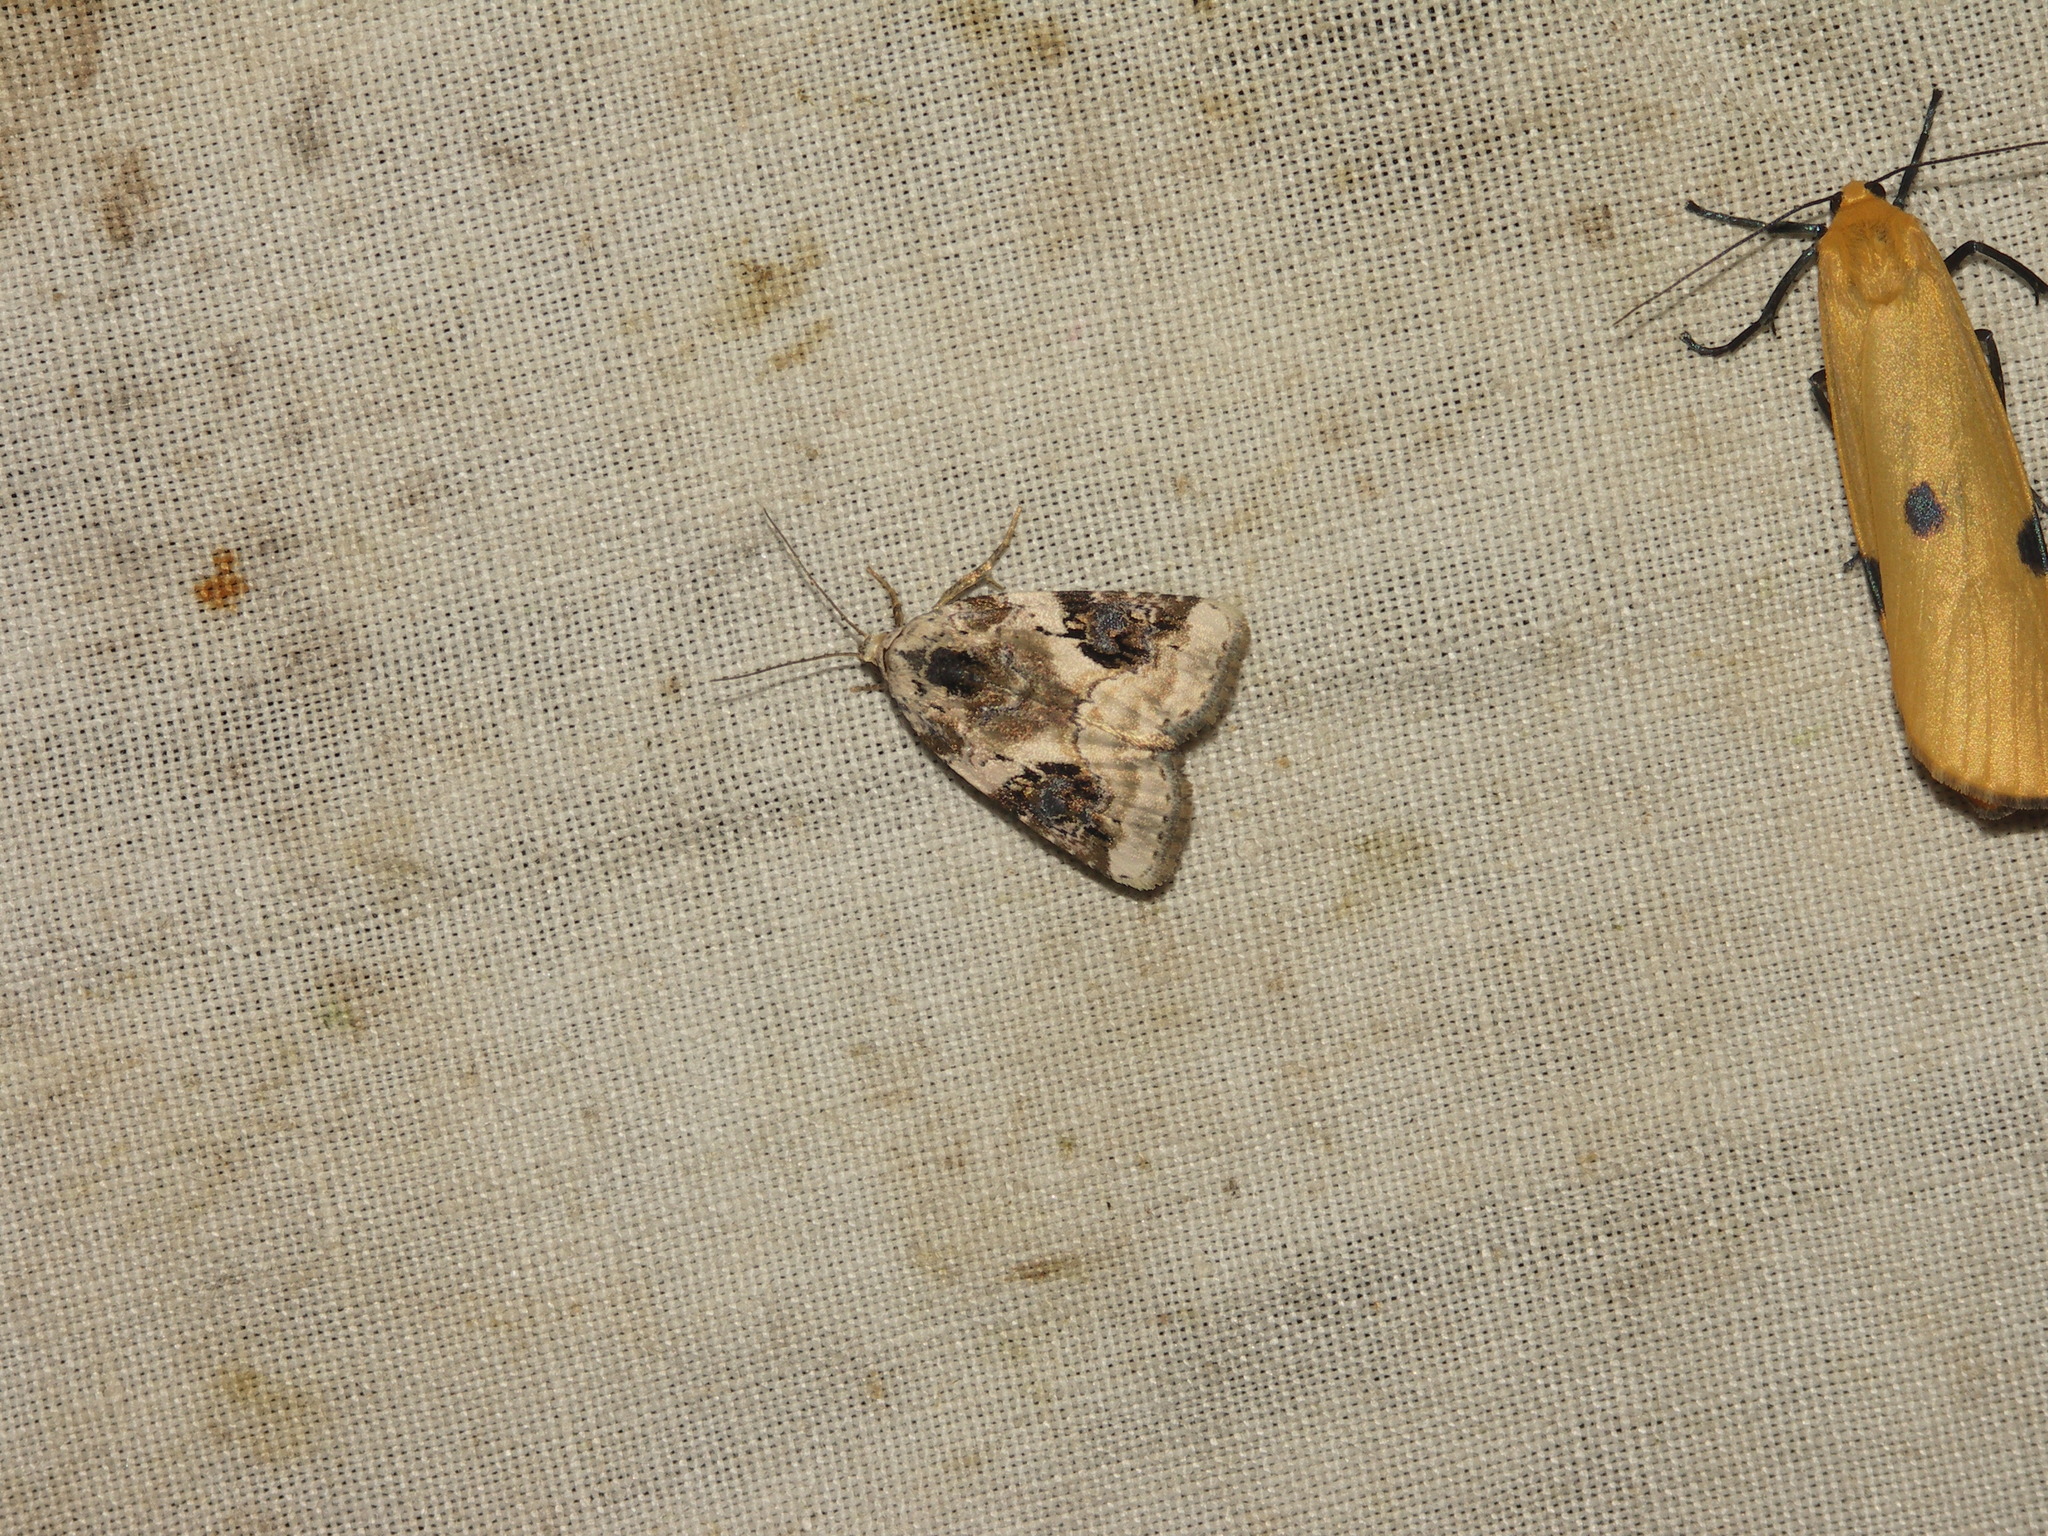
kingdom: Animalia
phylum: Arthropoda
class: Insecta
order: Lepidoptera
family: Noctuidae
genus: Pseudeustrotia
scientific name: Pseudeustrotia candidula
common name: Shining marbled
